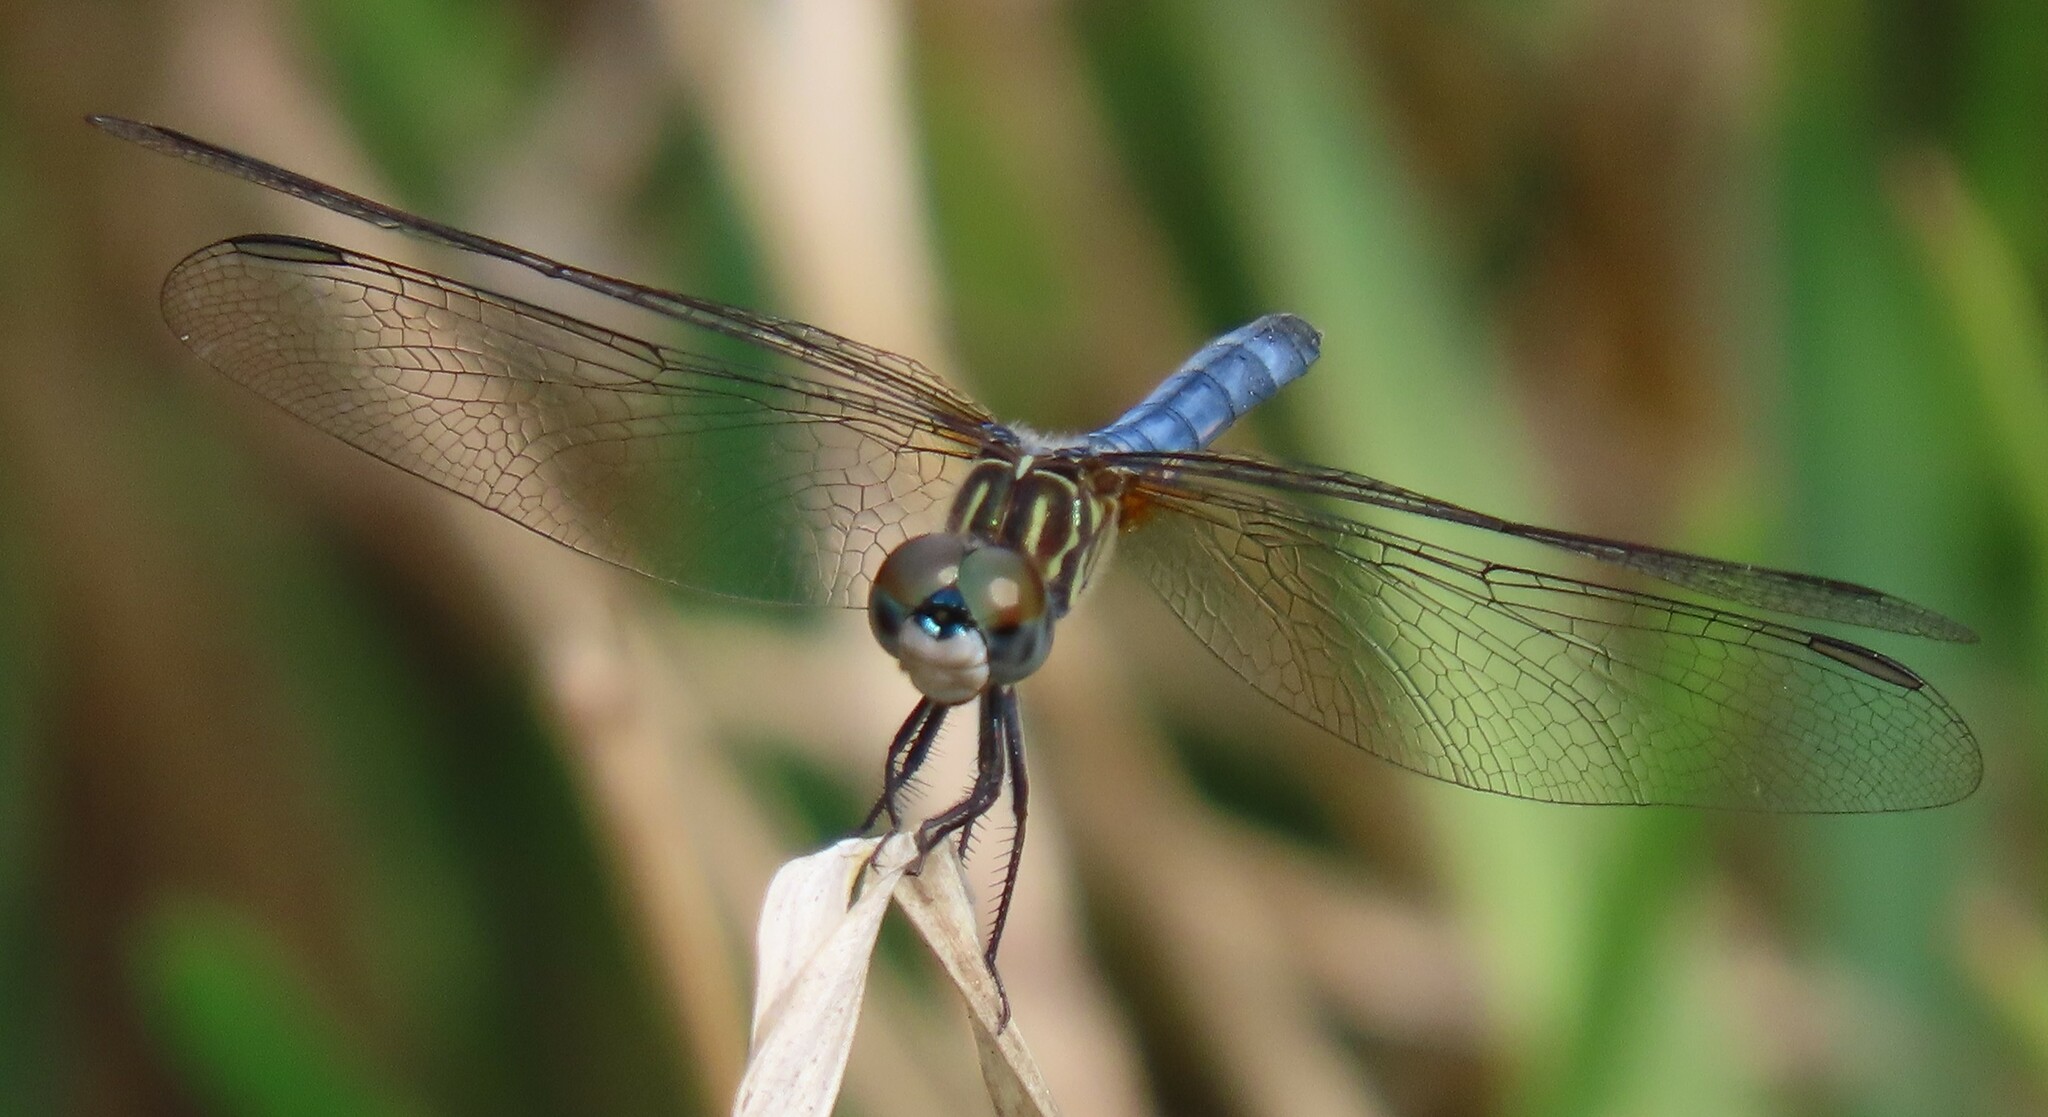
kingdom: Animalia
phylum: Arthropoda
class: Insecta
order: Odonata
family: Libellulidae
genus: Pachydiplax
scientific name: Pachydiplax longipennis
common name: Blue dasher
